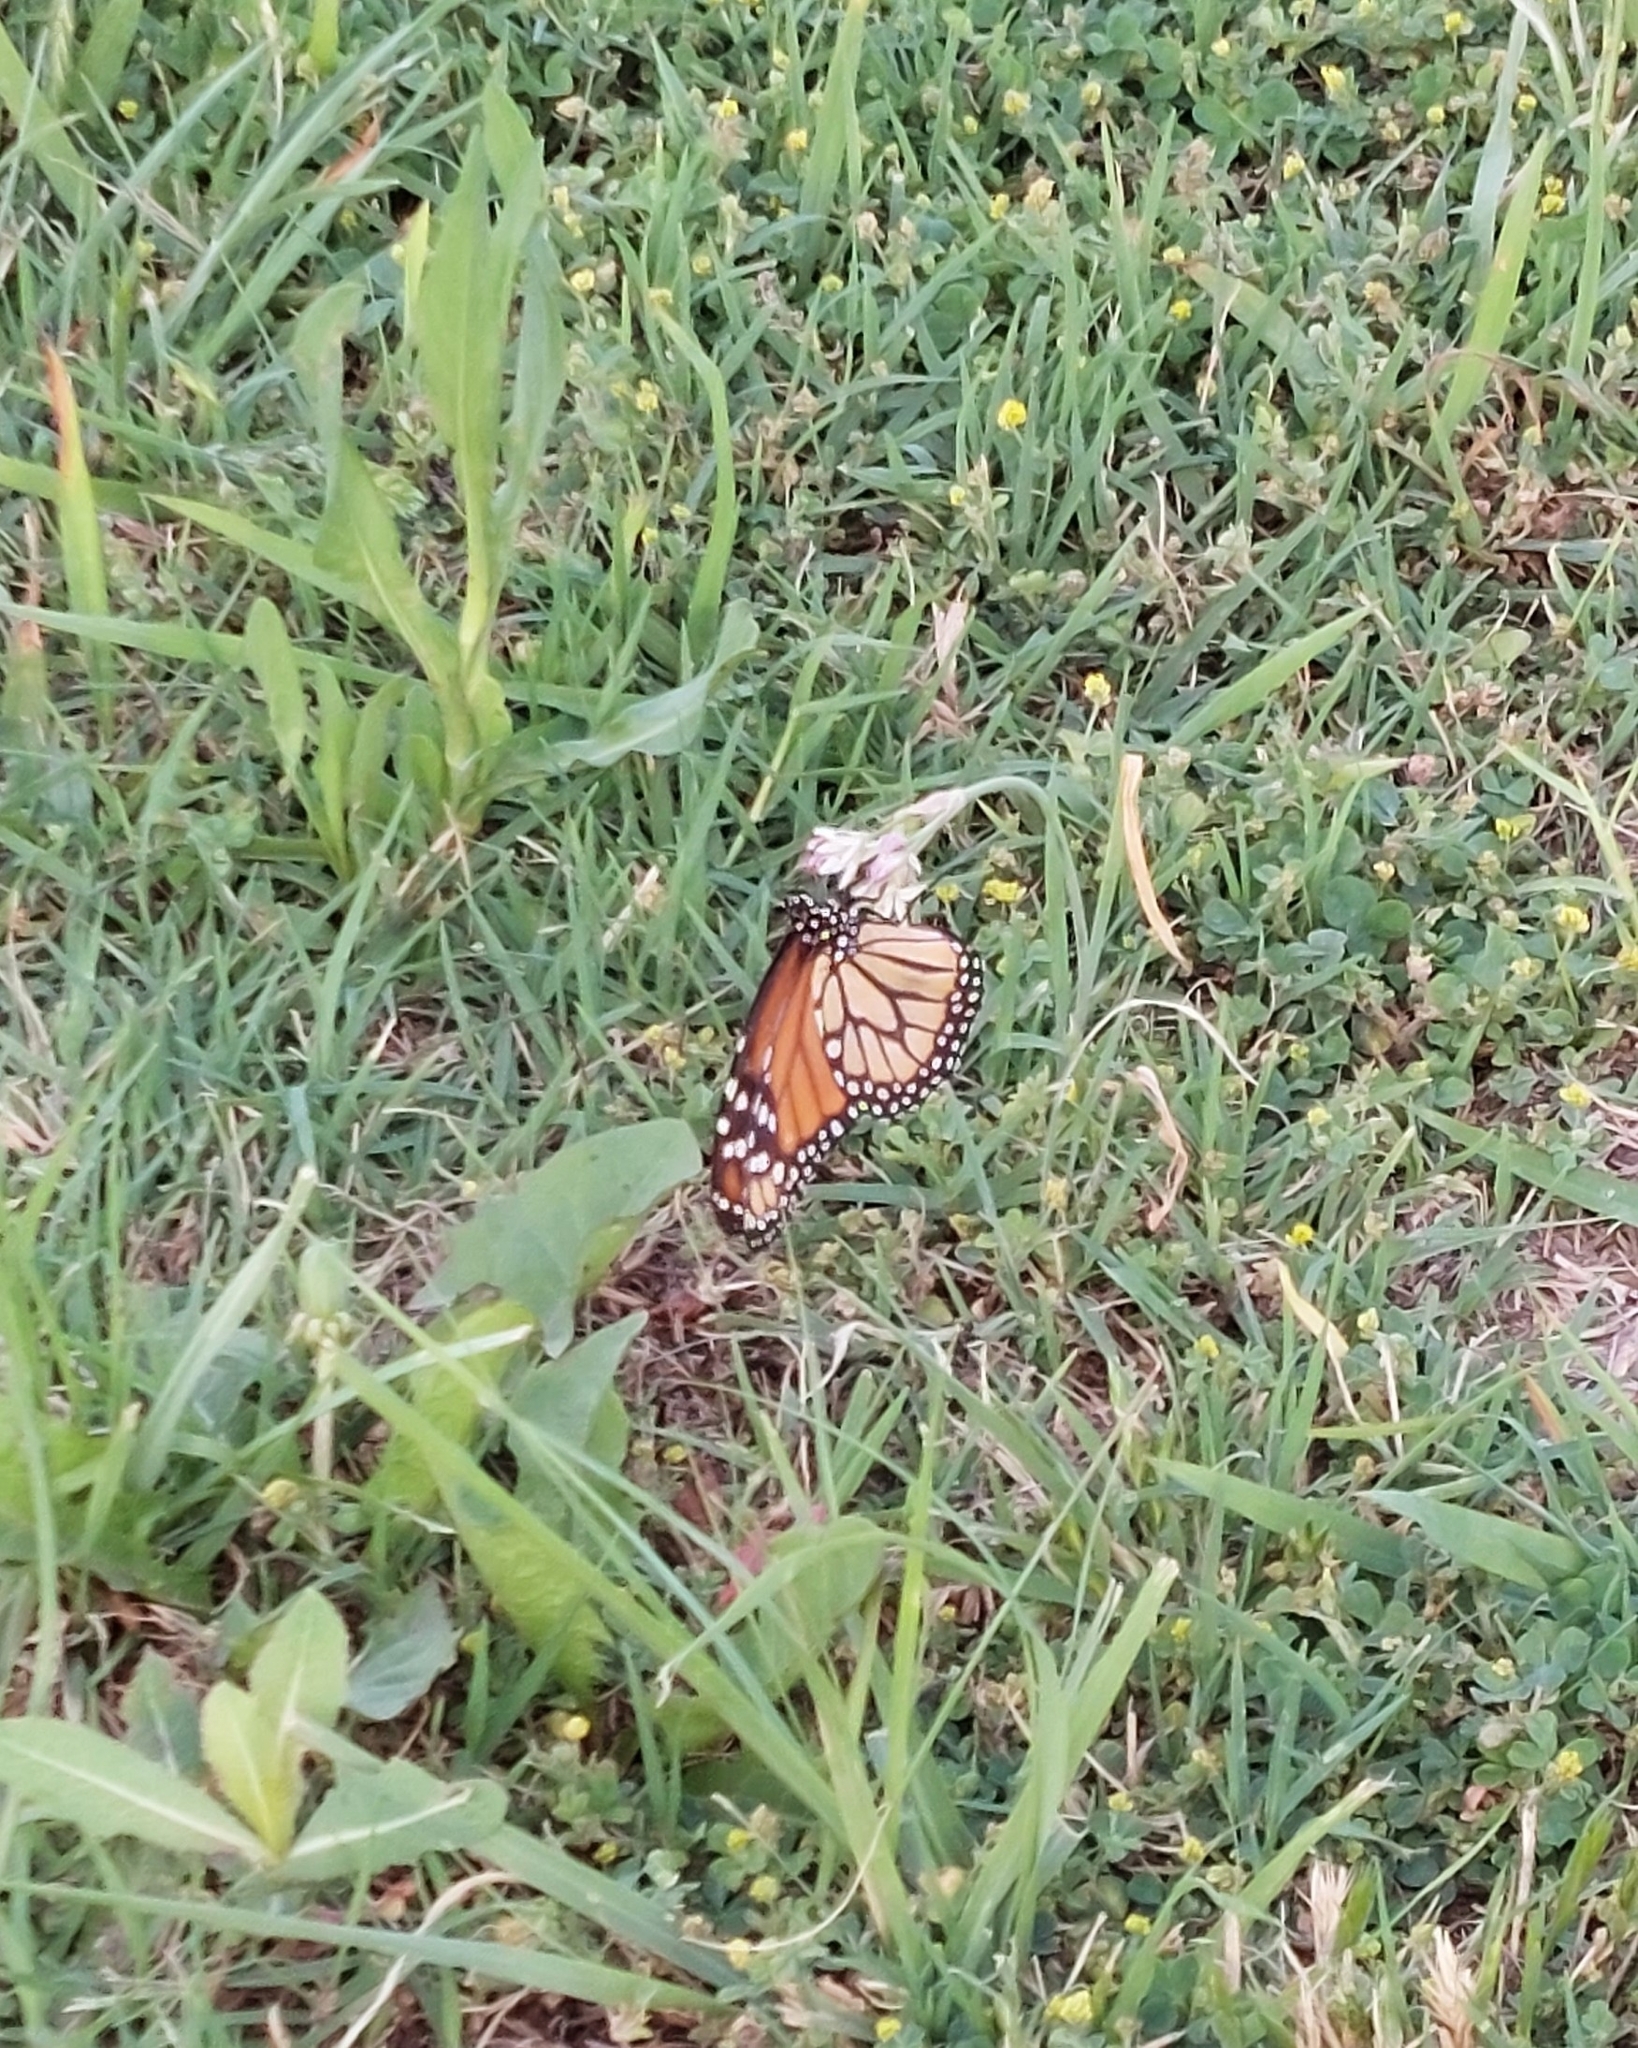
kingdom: Animalia
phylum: Arthropoda
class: Insecta
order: Lepidoptera
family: Nymphalidae
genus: Danaus
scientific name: Danaus erippus
